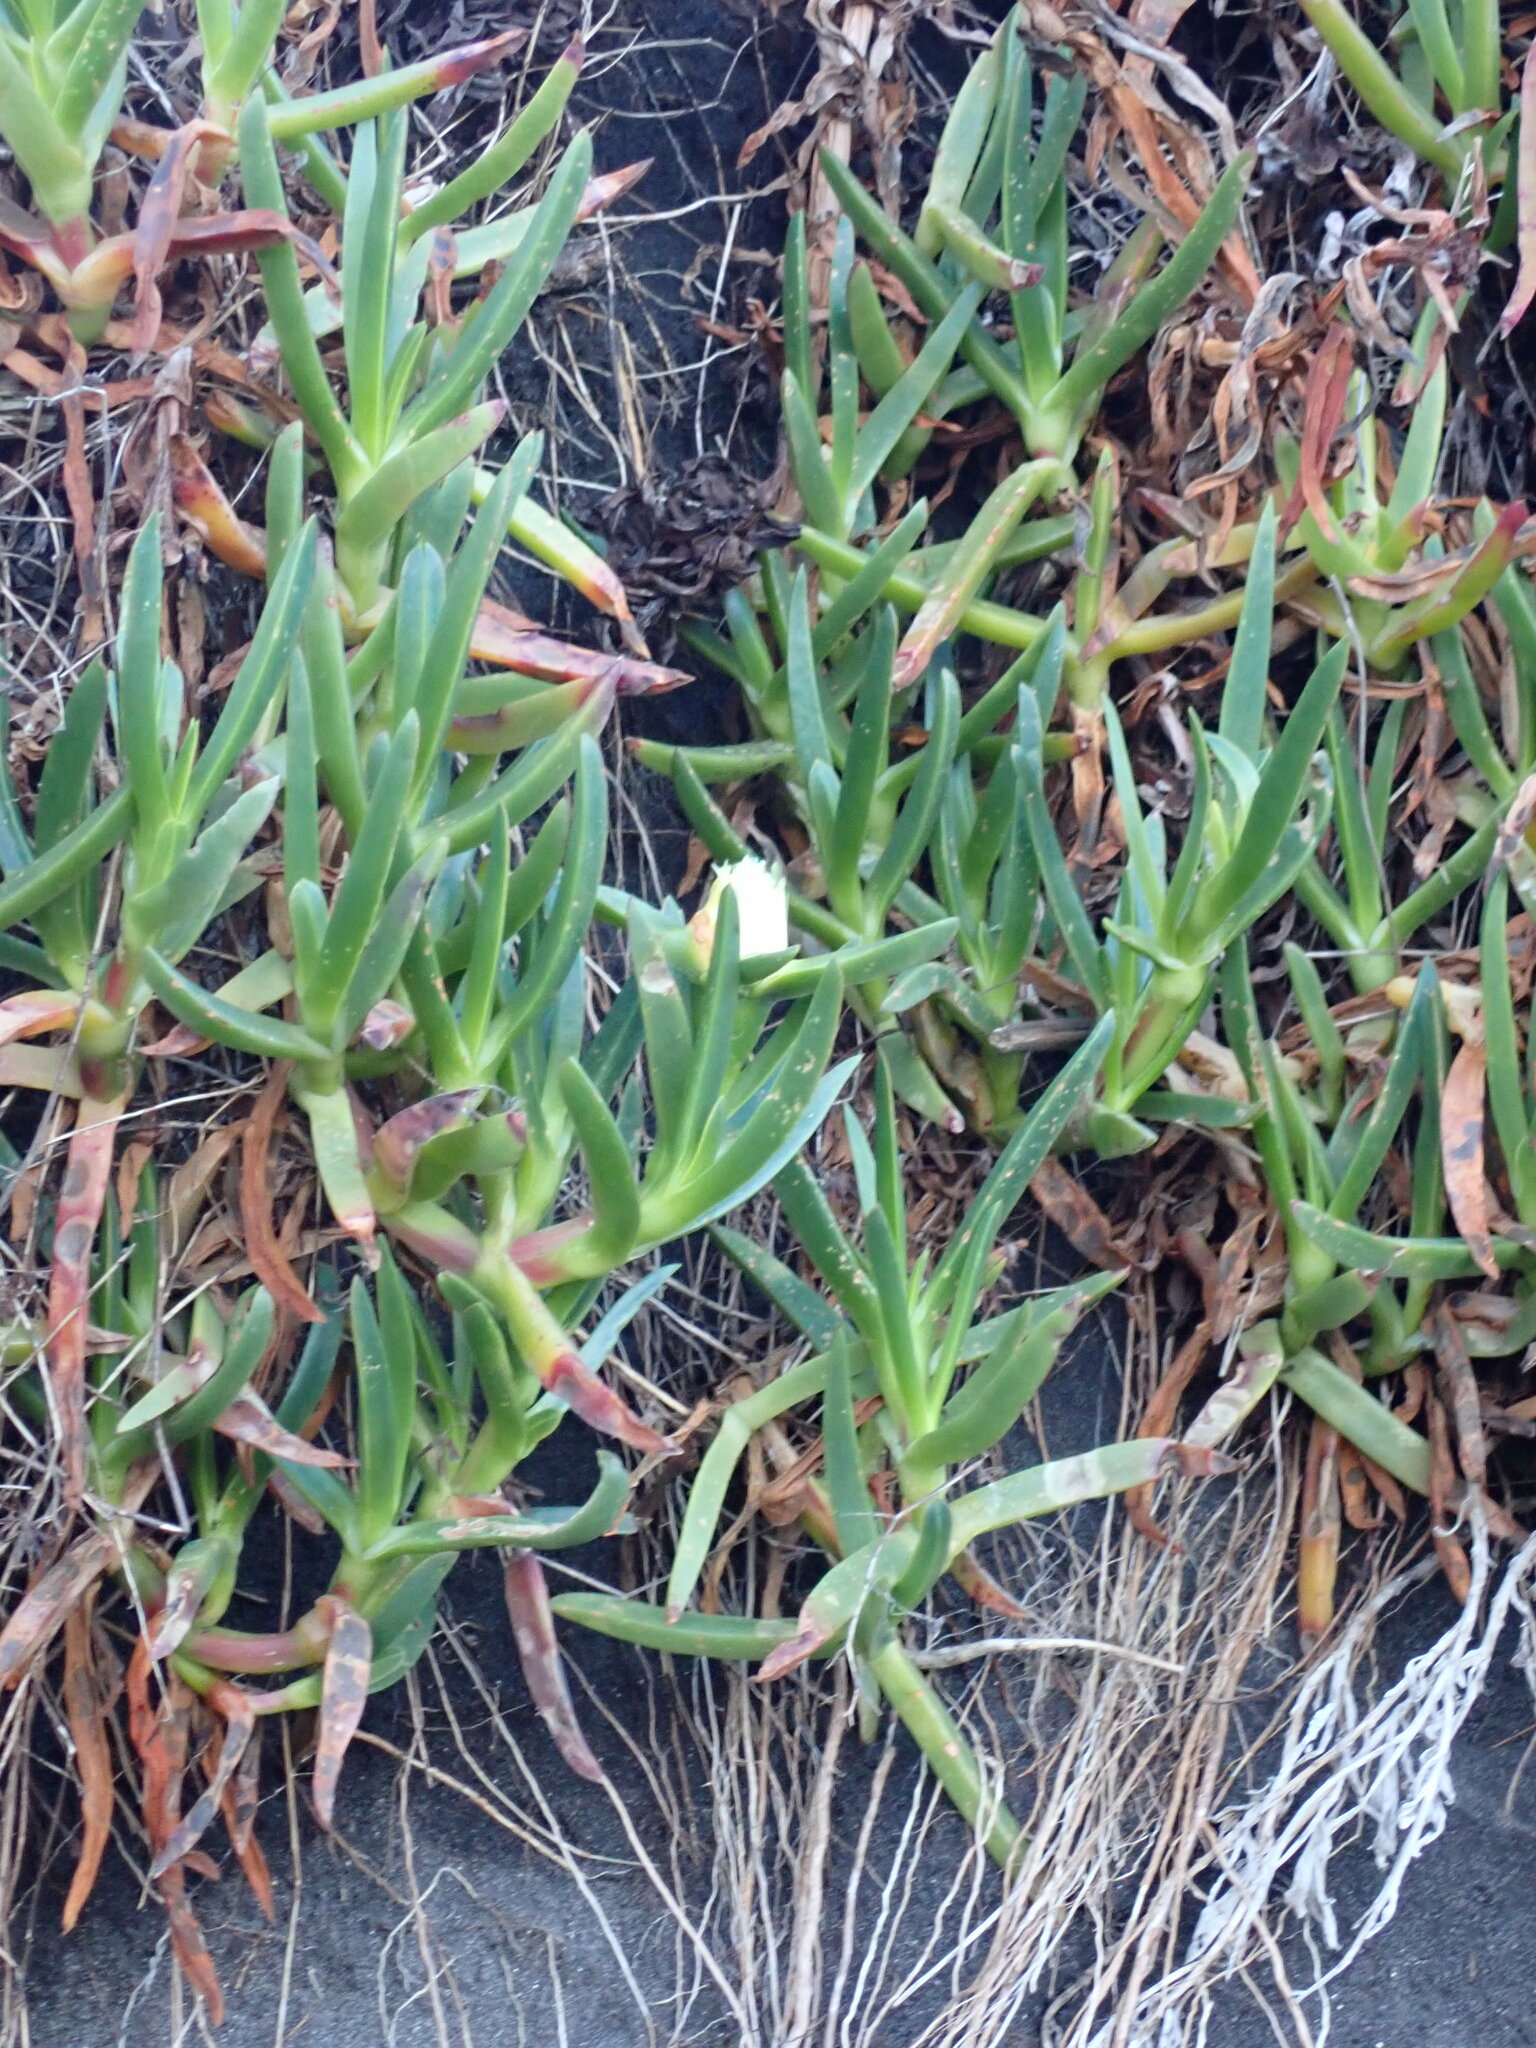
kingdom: Plantae
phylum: Tracheophyta
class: Magnoliopsida
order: Caryophyllales
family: Aizoaceae
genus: Carpobrotus
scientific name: Carpobrotus edulis
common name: Hottentot-fig
